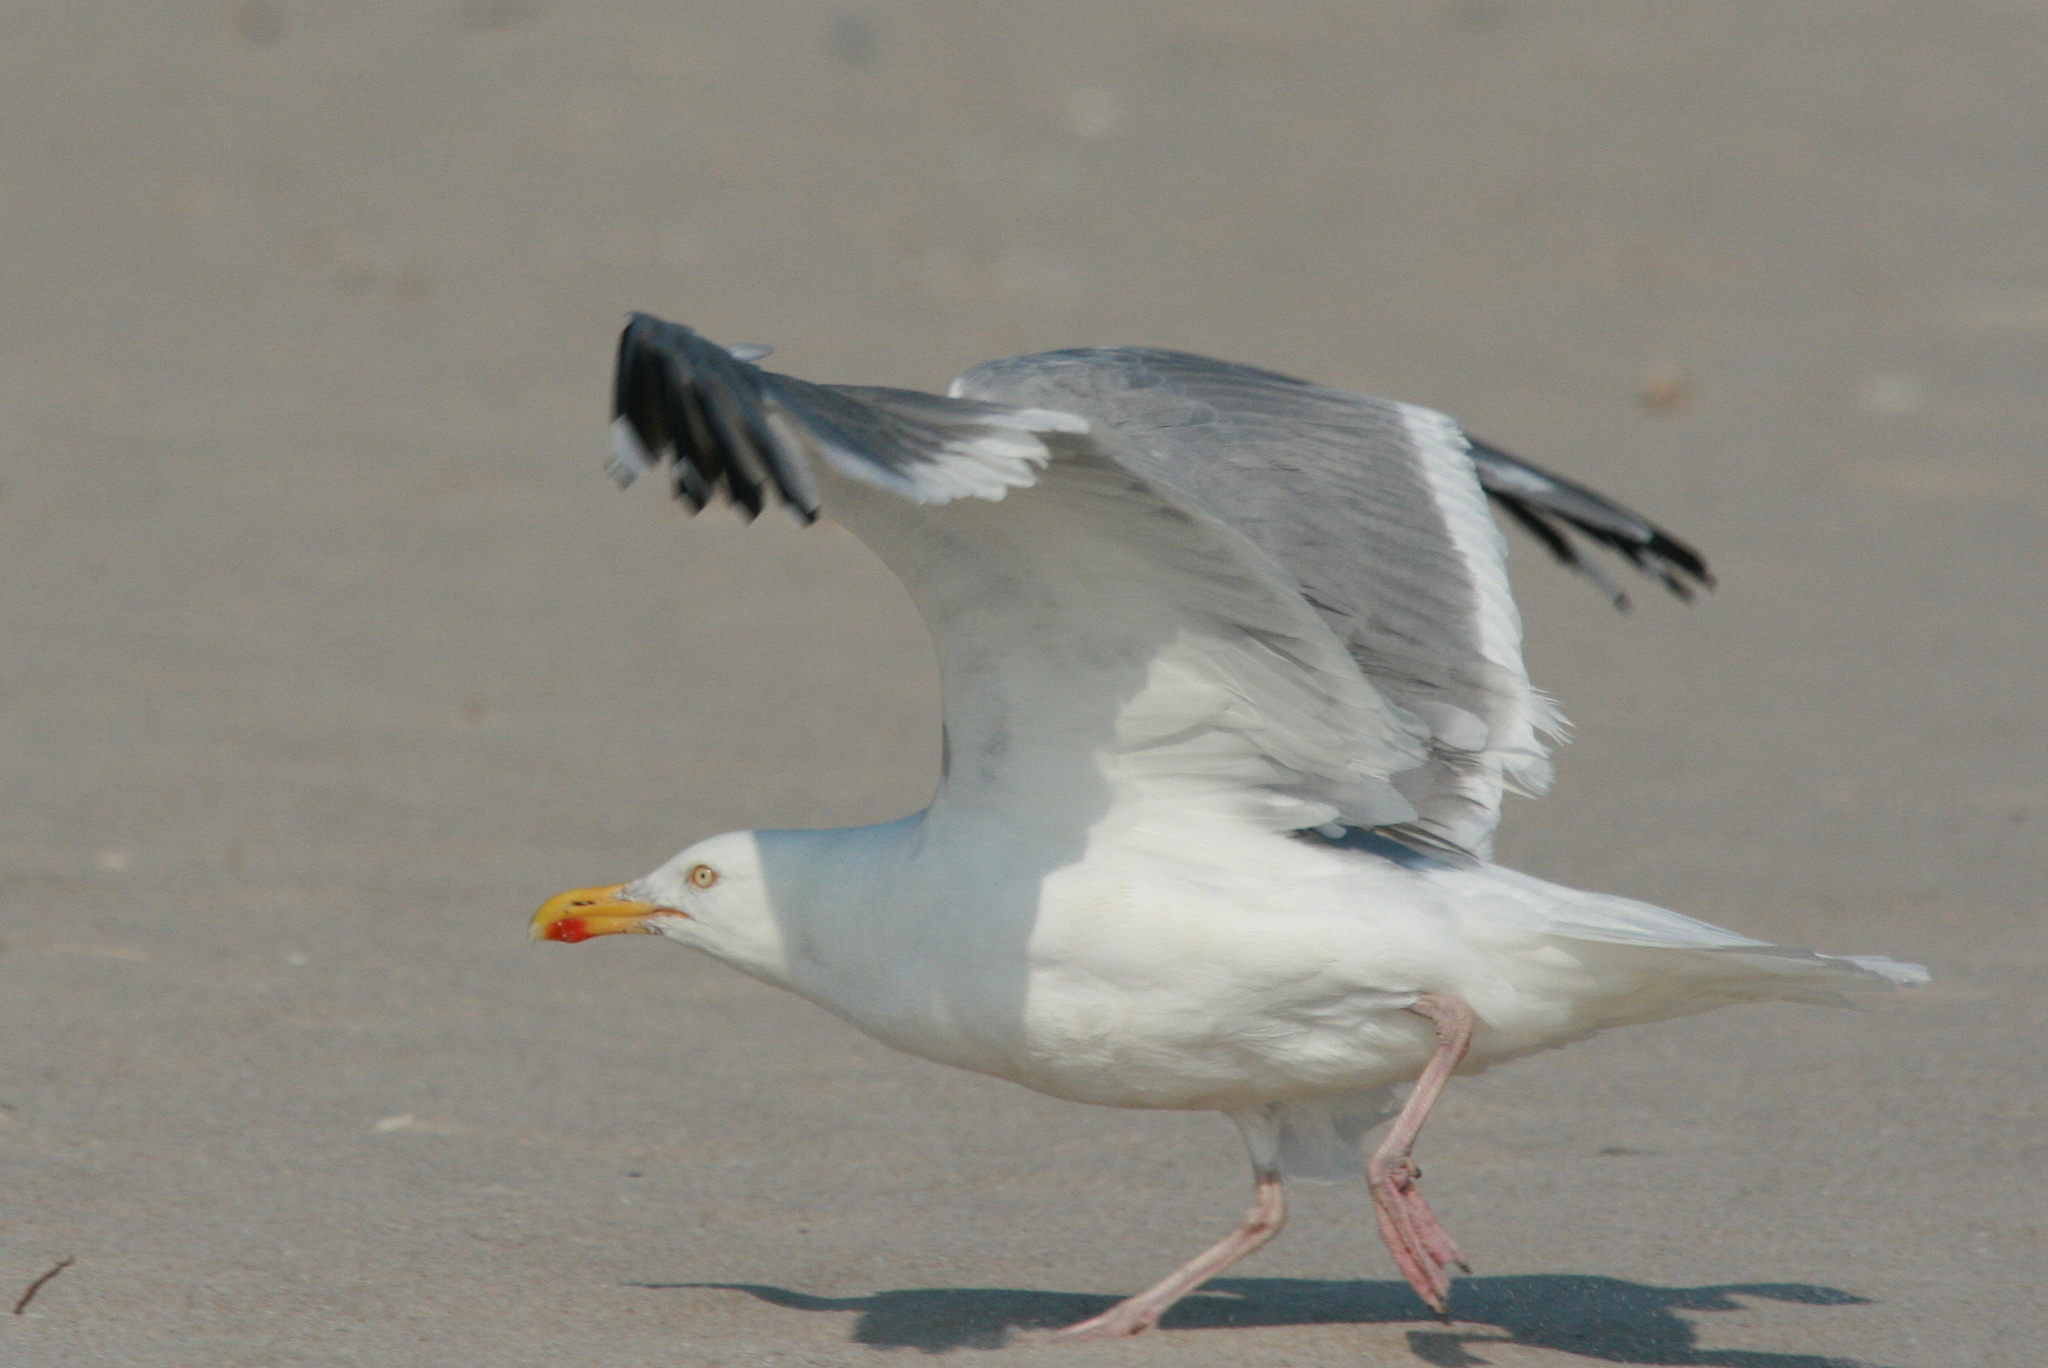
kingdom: Animalia
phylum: Chordata
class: Aves
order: Charadriiformes
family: Laridae
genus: Larus
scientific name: Larus argentatus
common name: Herring gull
